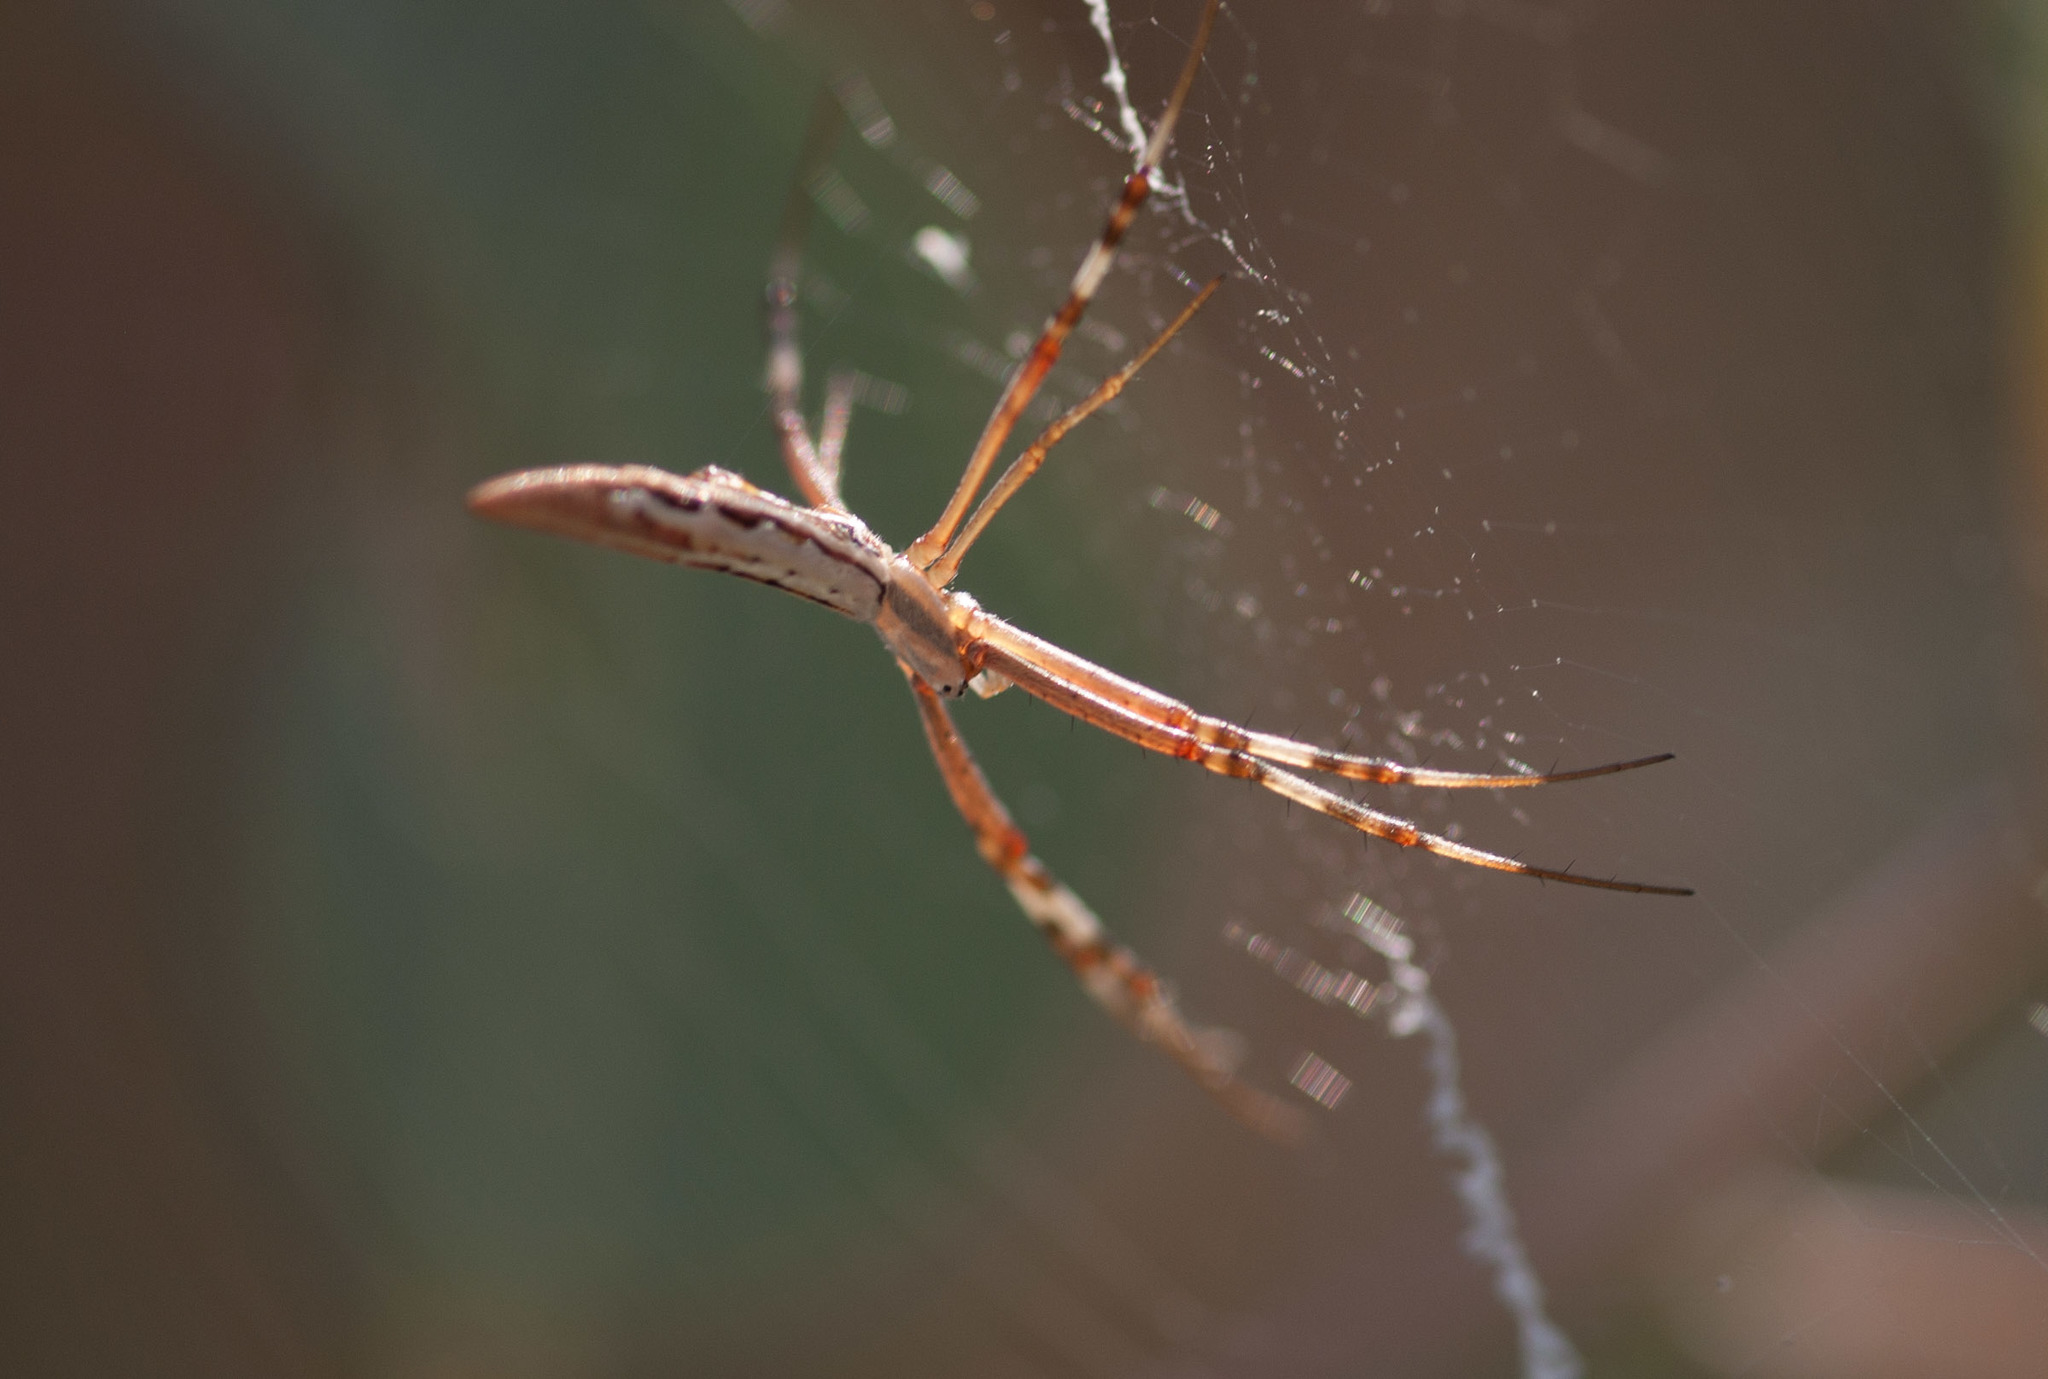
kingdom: Animalia
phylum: Arthropoda
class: Arachnida
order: Araneae
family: Araneidae
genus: Argiope
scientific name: Argiope protensa
